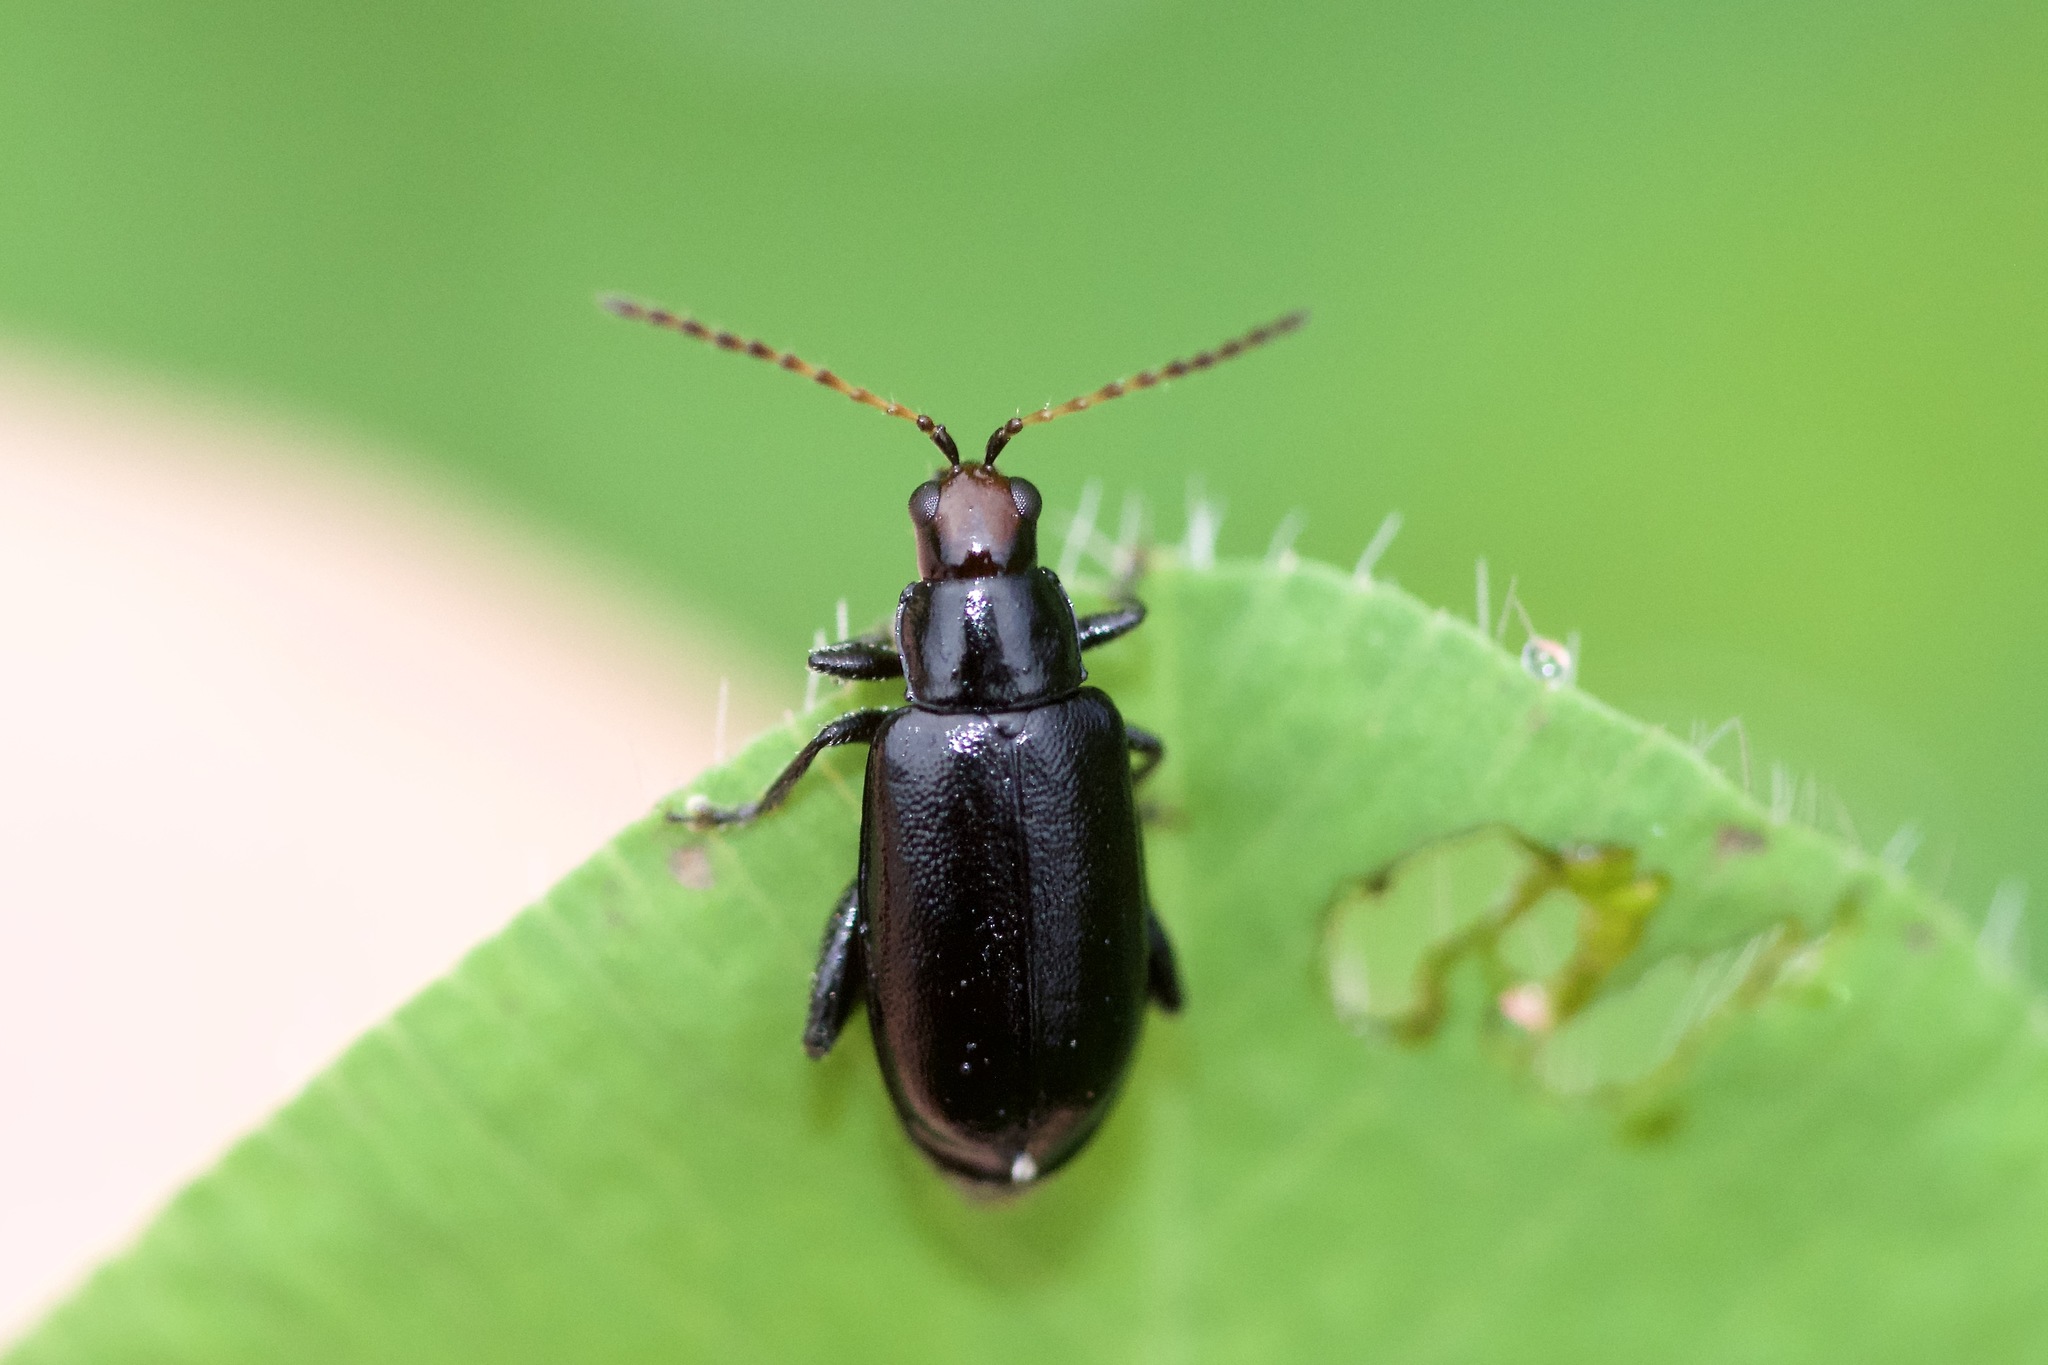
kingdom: Animalia
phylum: Arthropoda
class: Insecta
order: Coleoptera
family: Chrysomelidae
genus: Systena
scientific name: Systena frontalis
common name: Red-headed flea beetle
